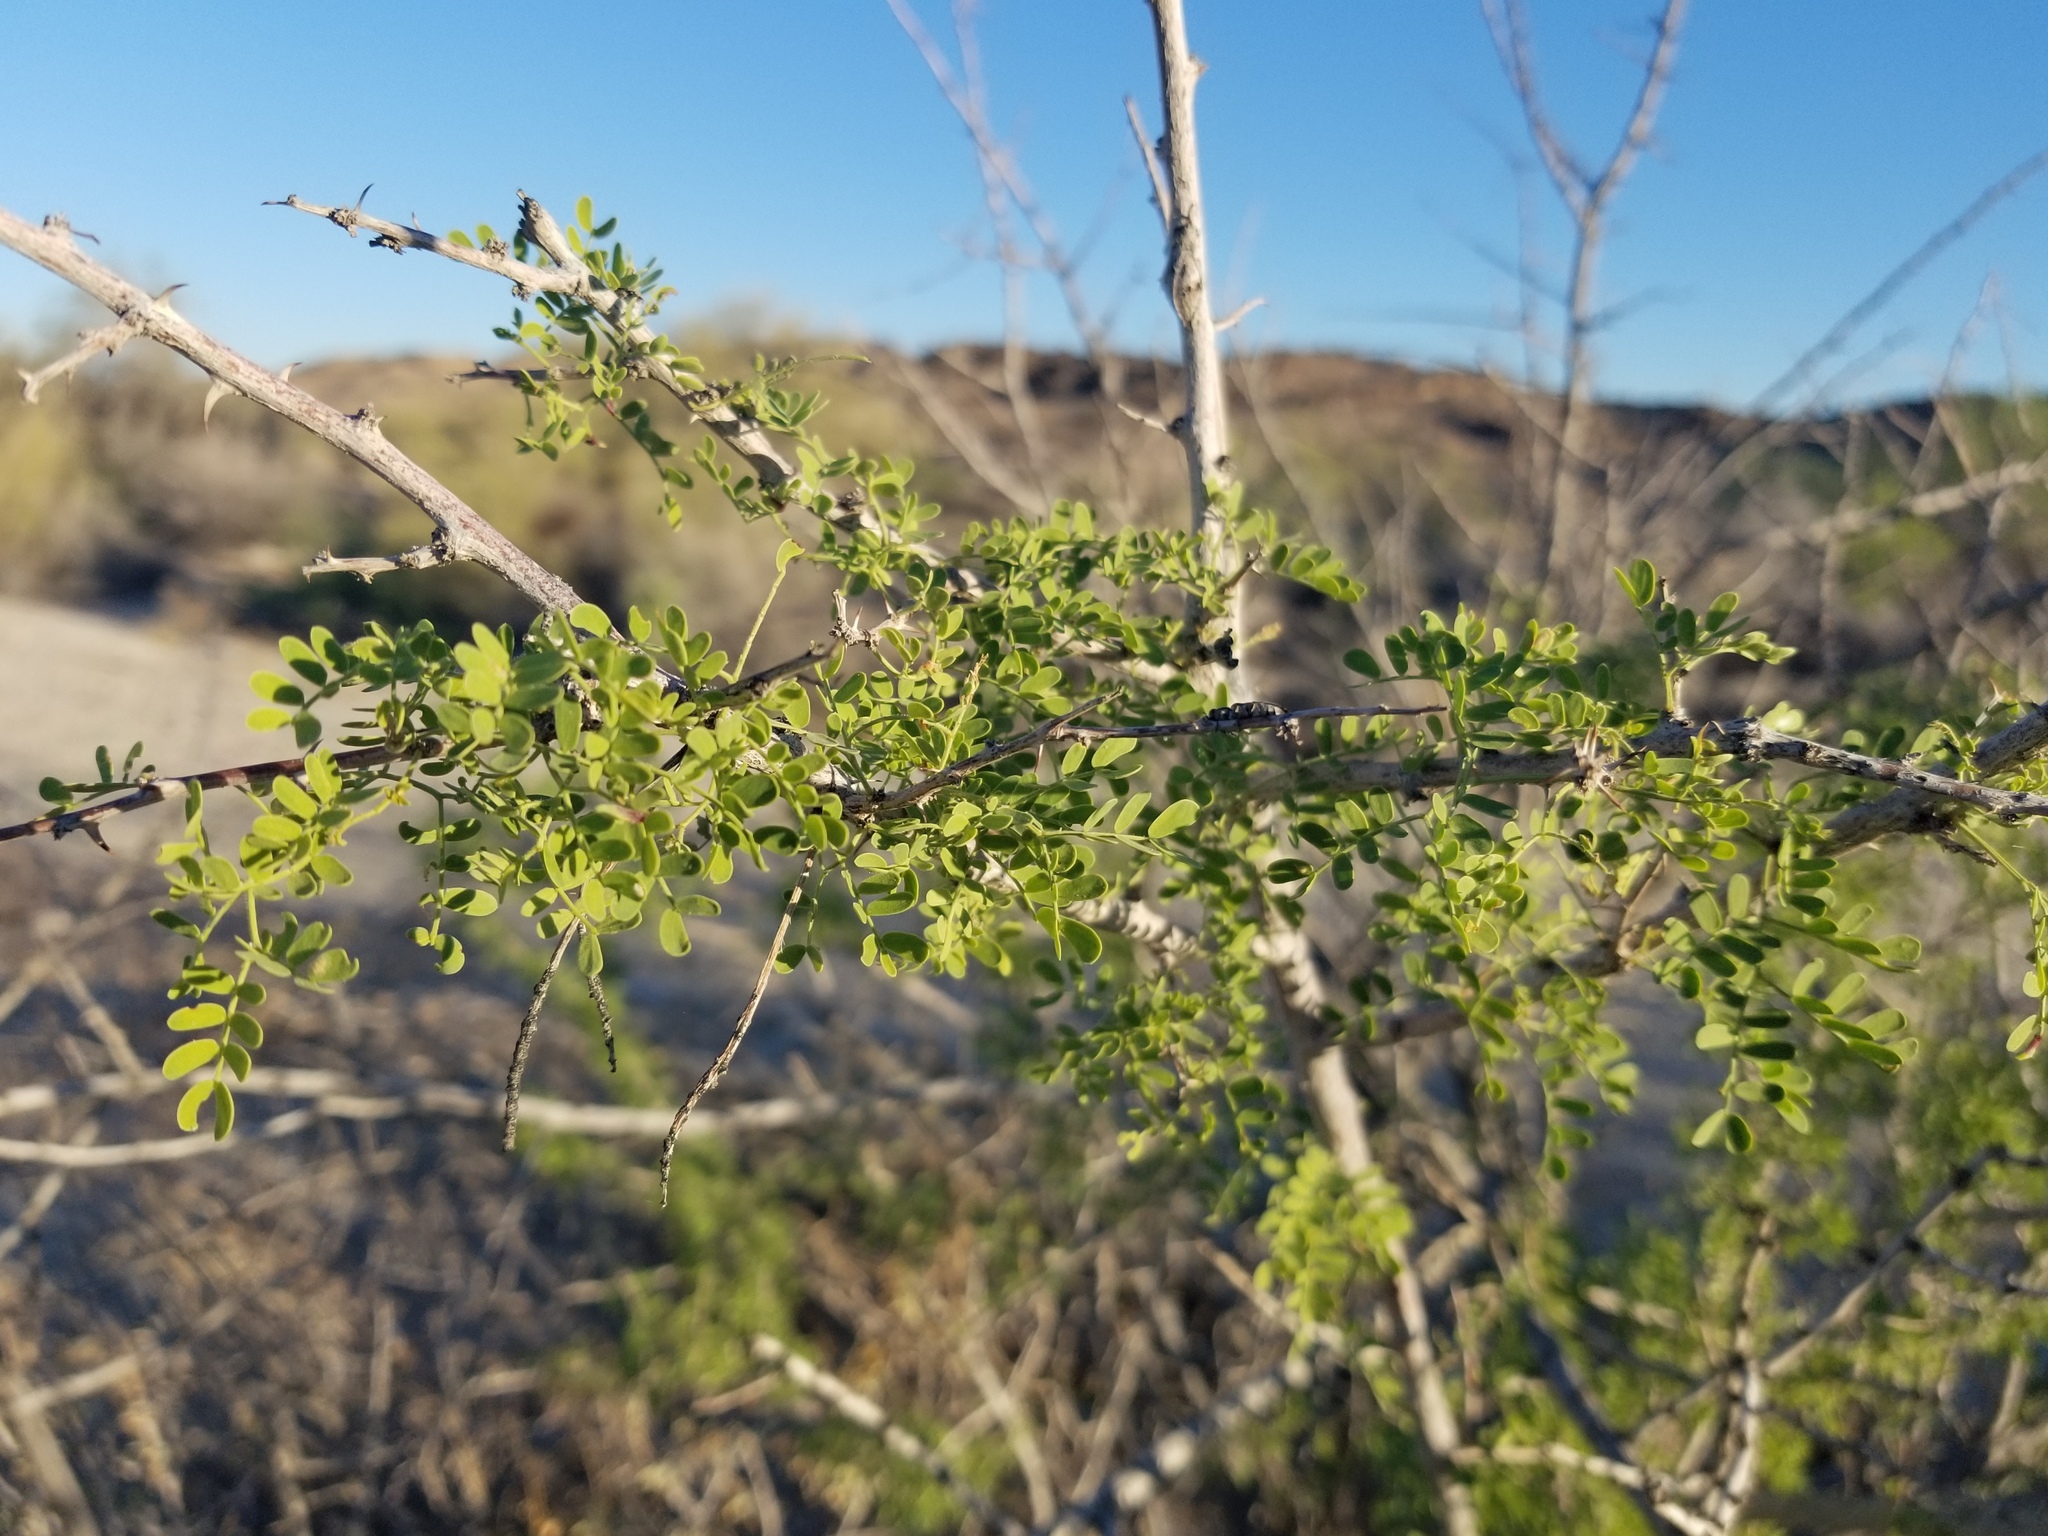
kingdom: Plantae
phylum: Tracheophyta
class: Magnoliopsida
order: Fabales
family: Fabaceae
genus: Senegalia
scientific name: Senegalia greggii
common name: Texas-mimosa
